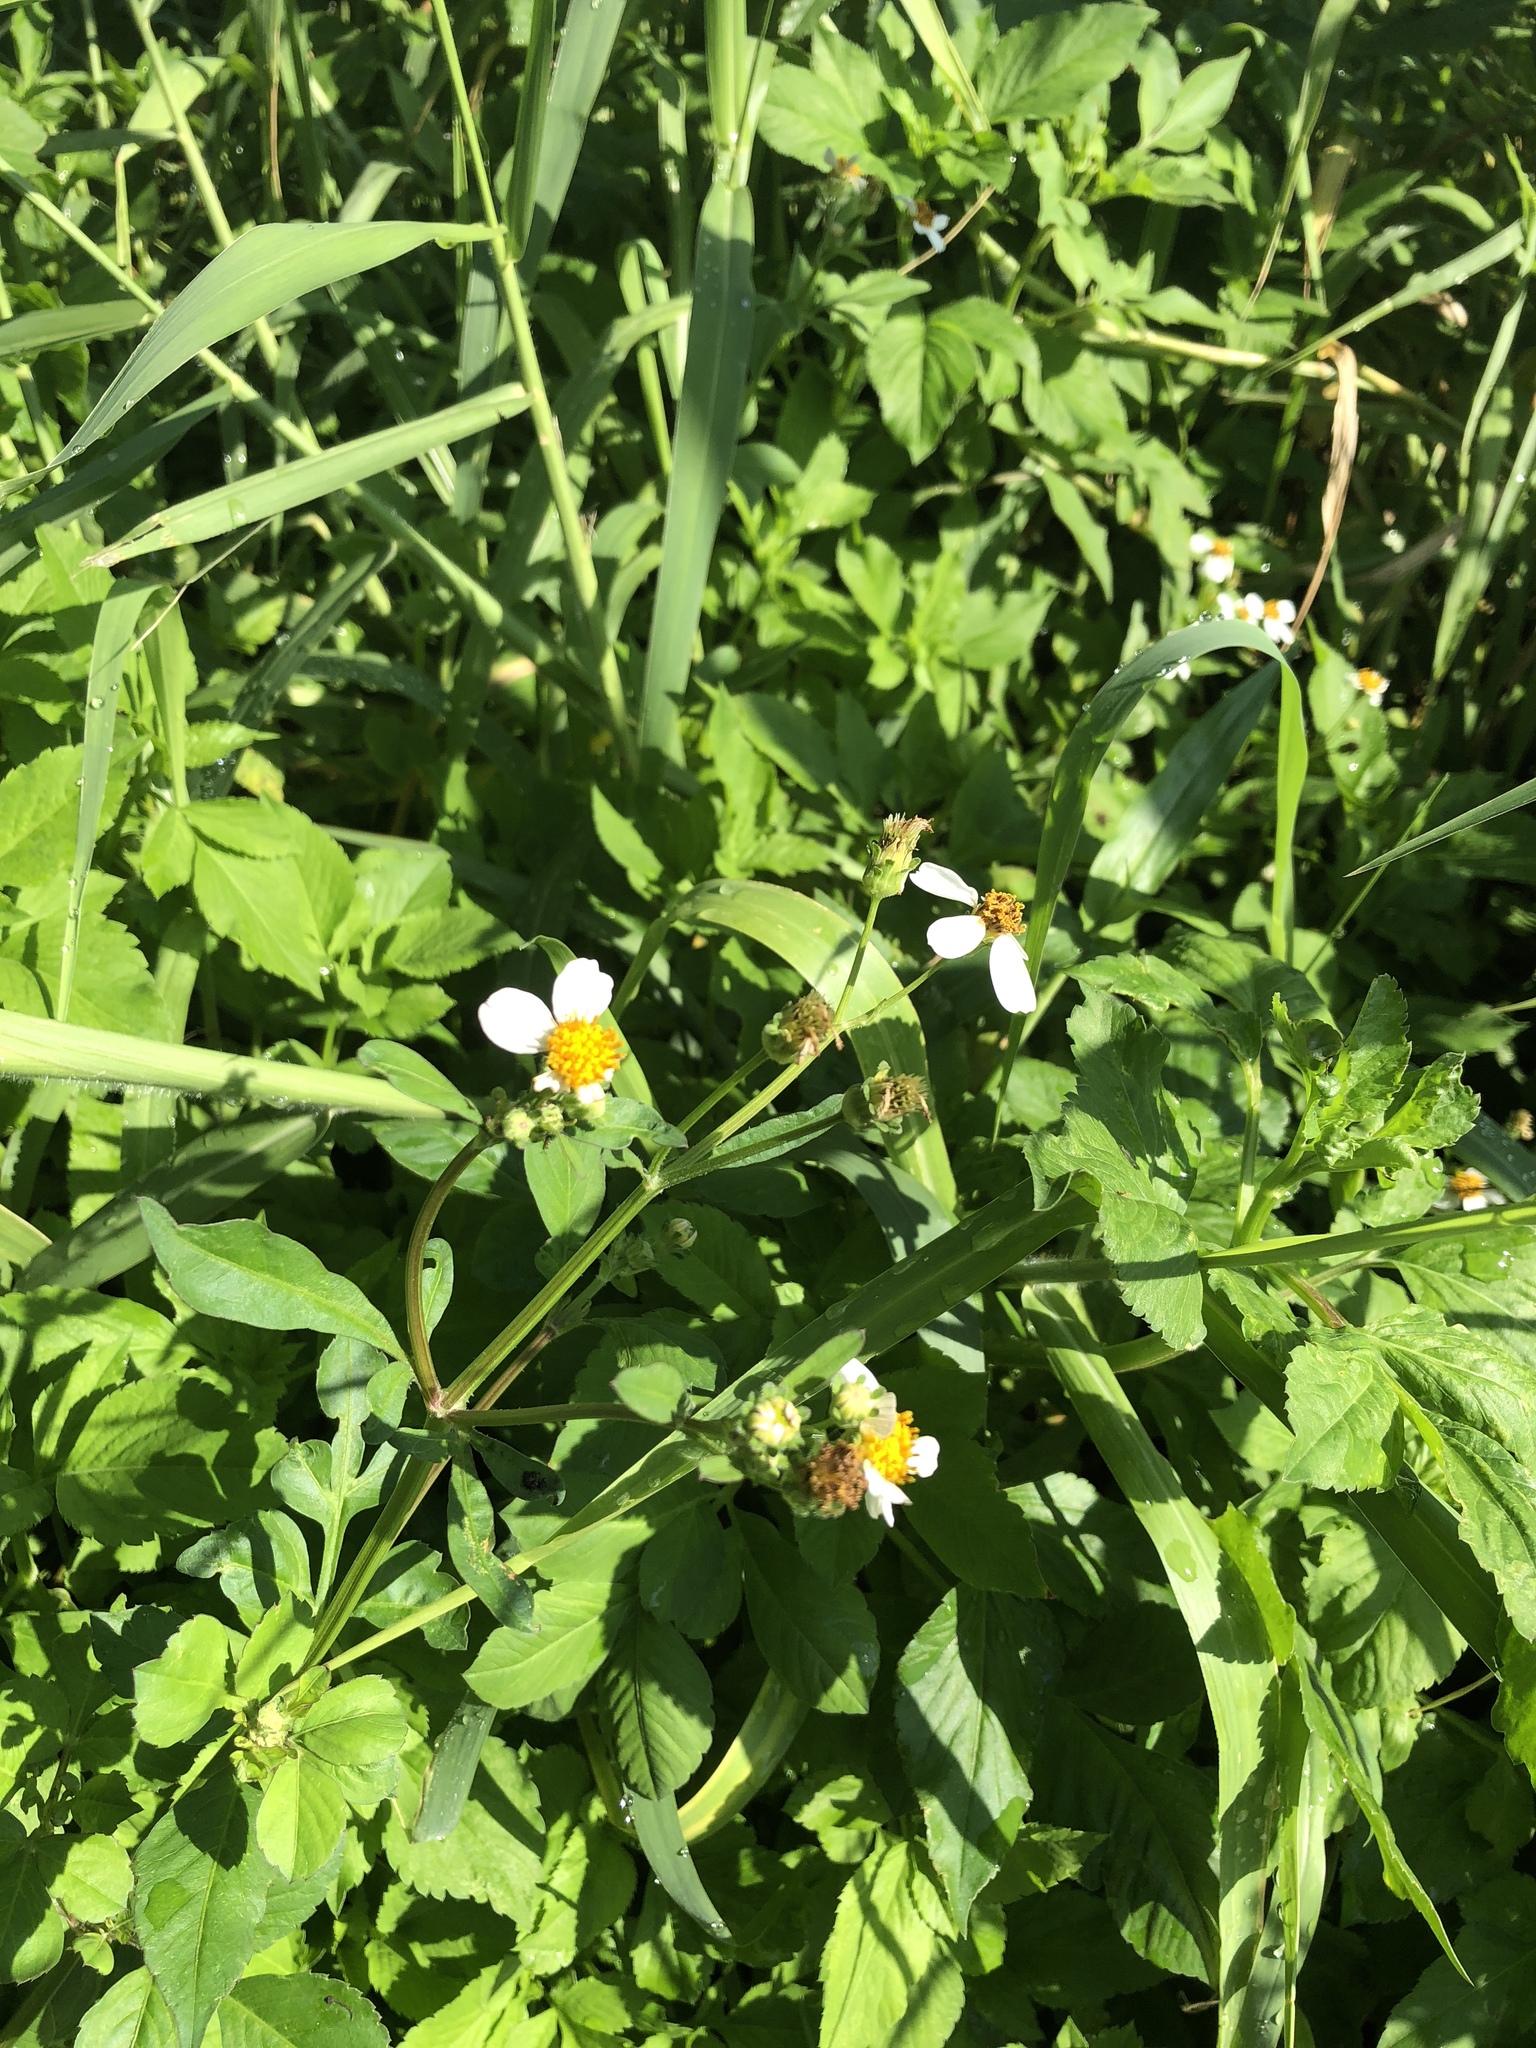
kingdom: Plantae
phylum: Tracheophyta
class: Magnoliopsida
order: Asterales
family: Asteraceae
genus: Bidens
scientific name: Bidens alba
